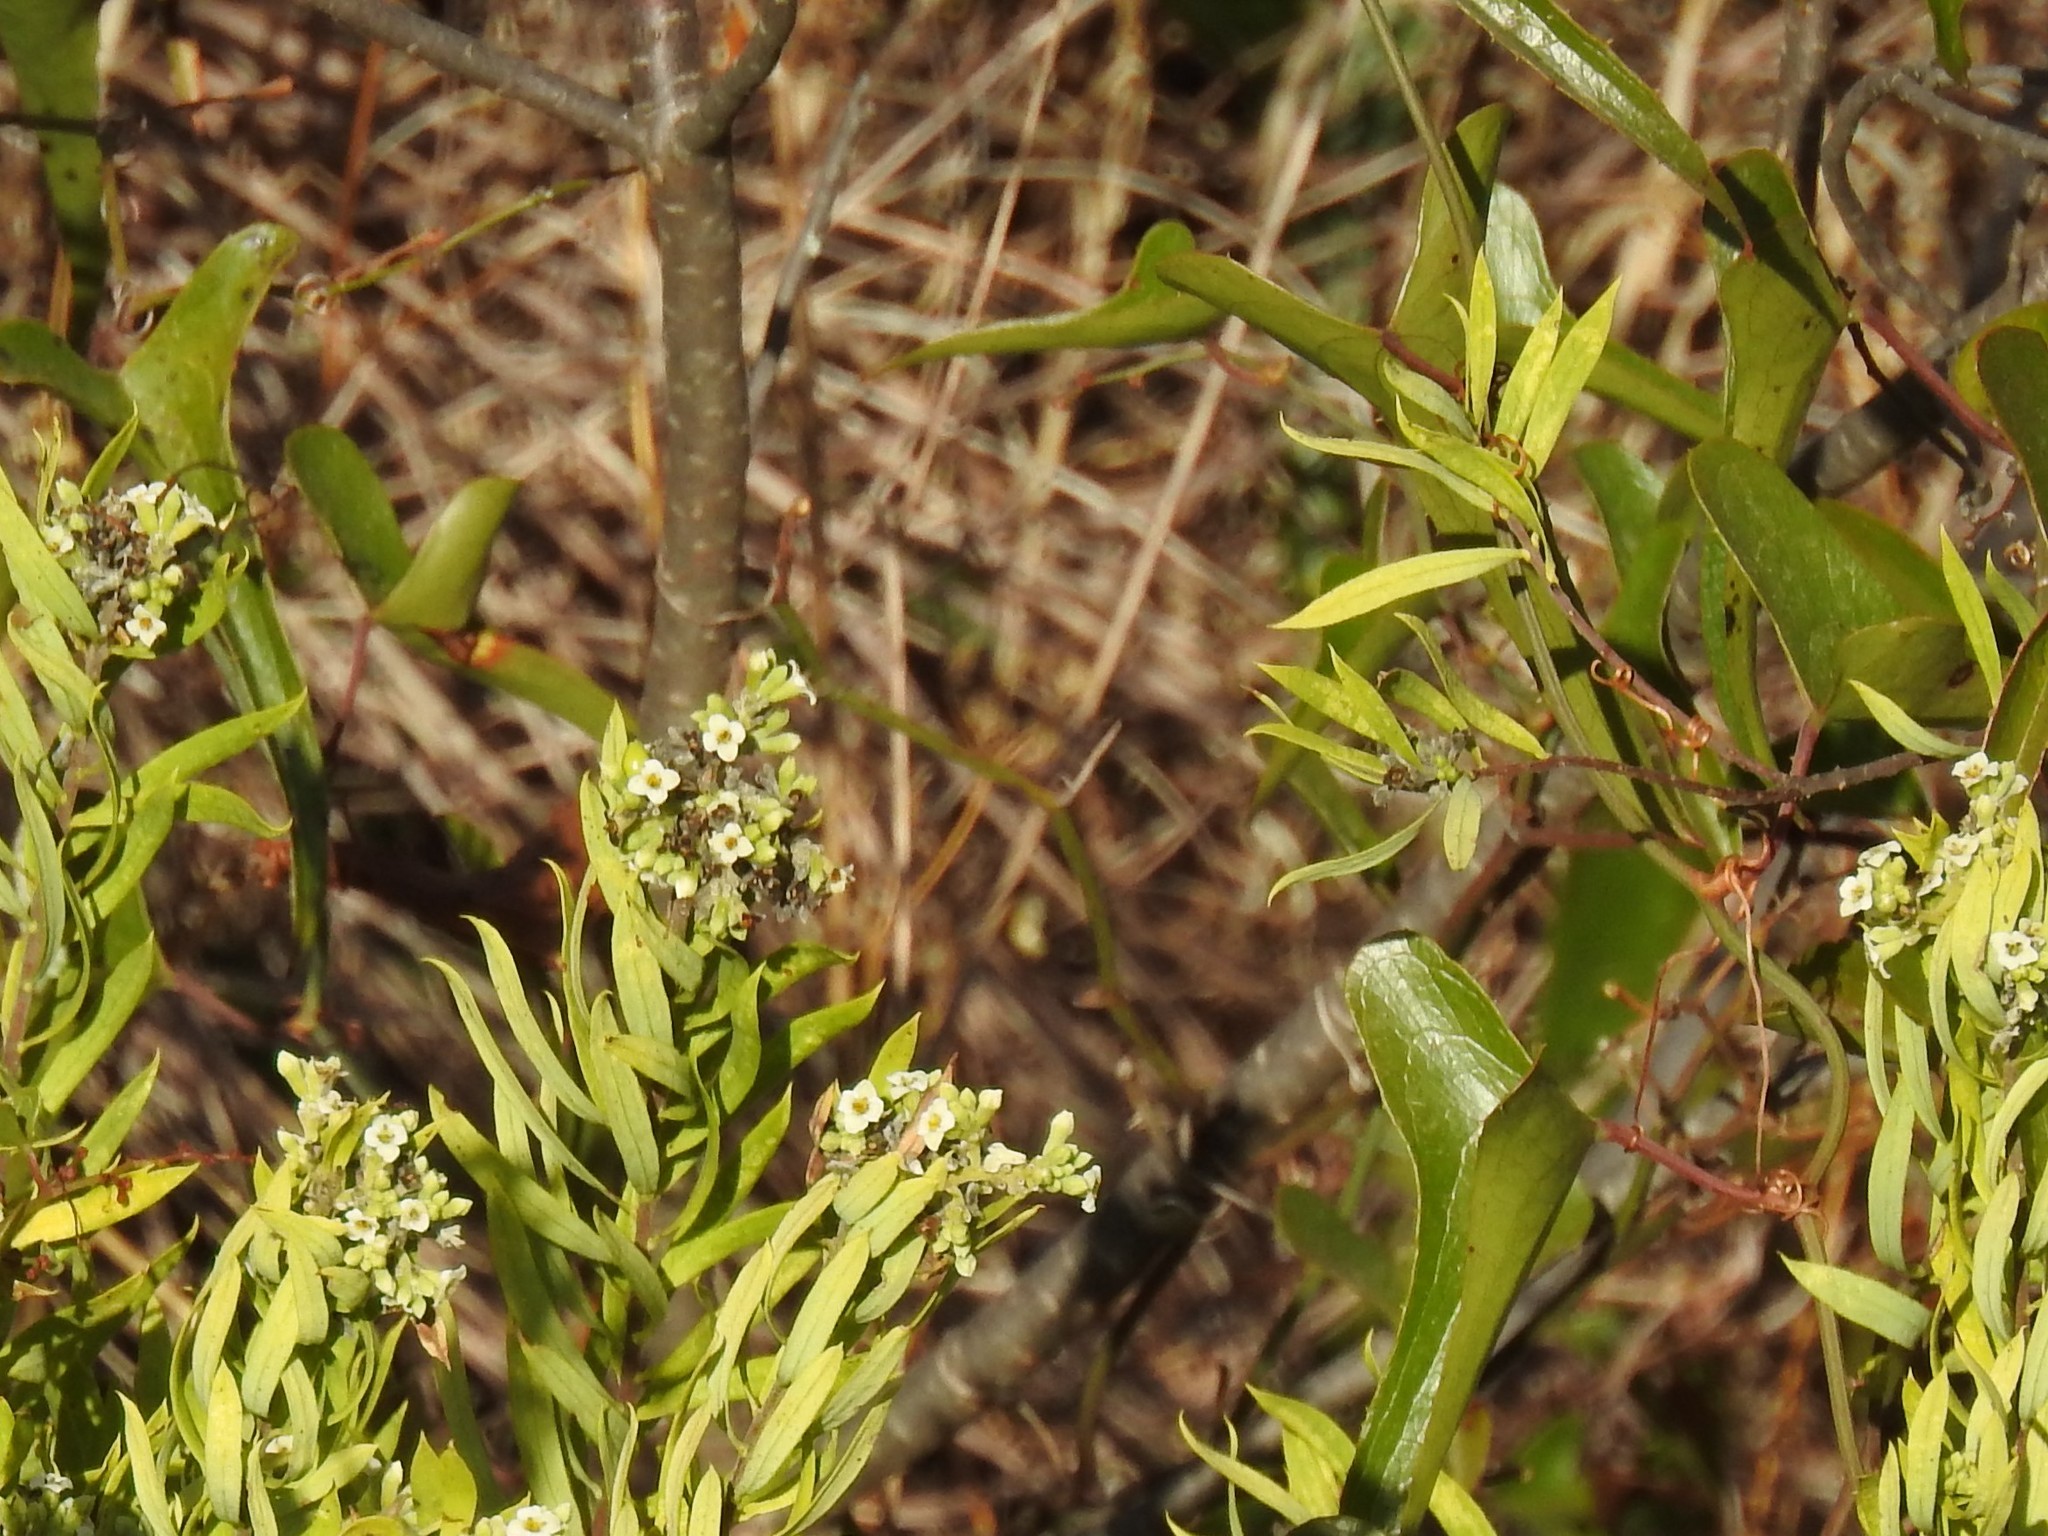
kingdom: Plantae
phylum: Tracheophyta
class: Liliopsida
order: Liliales
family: Smilacaceae
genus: Smilax
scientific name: Smilax aspera
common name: Common smilax
